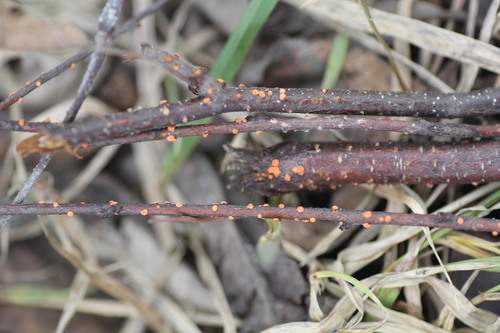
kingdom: Fungi
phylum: Ascomycota
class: Sordariomycetes
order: Hypocreales
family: Nectriaceae
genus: Nectria
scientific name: Nectria
